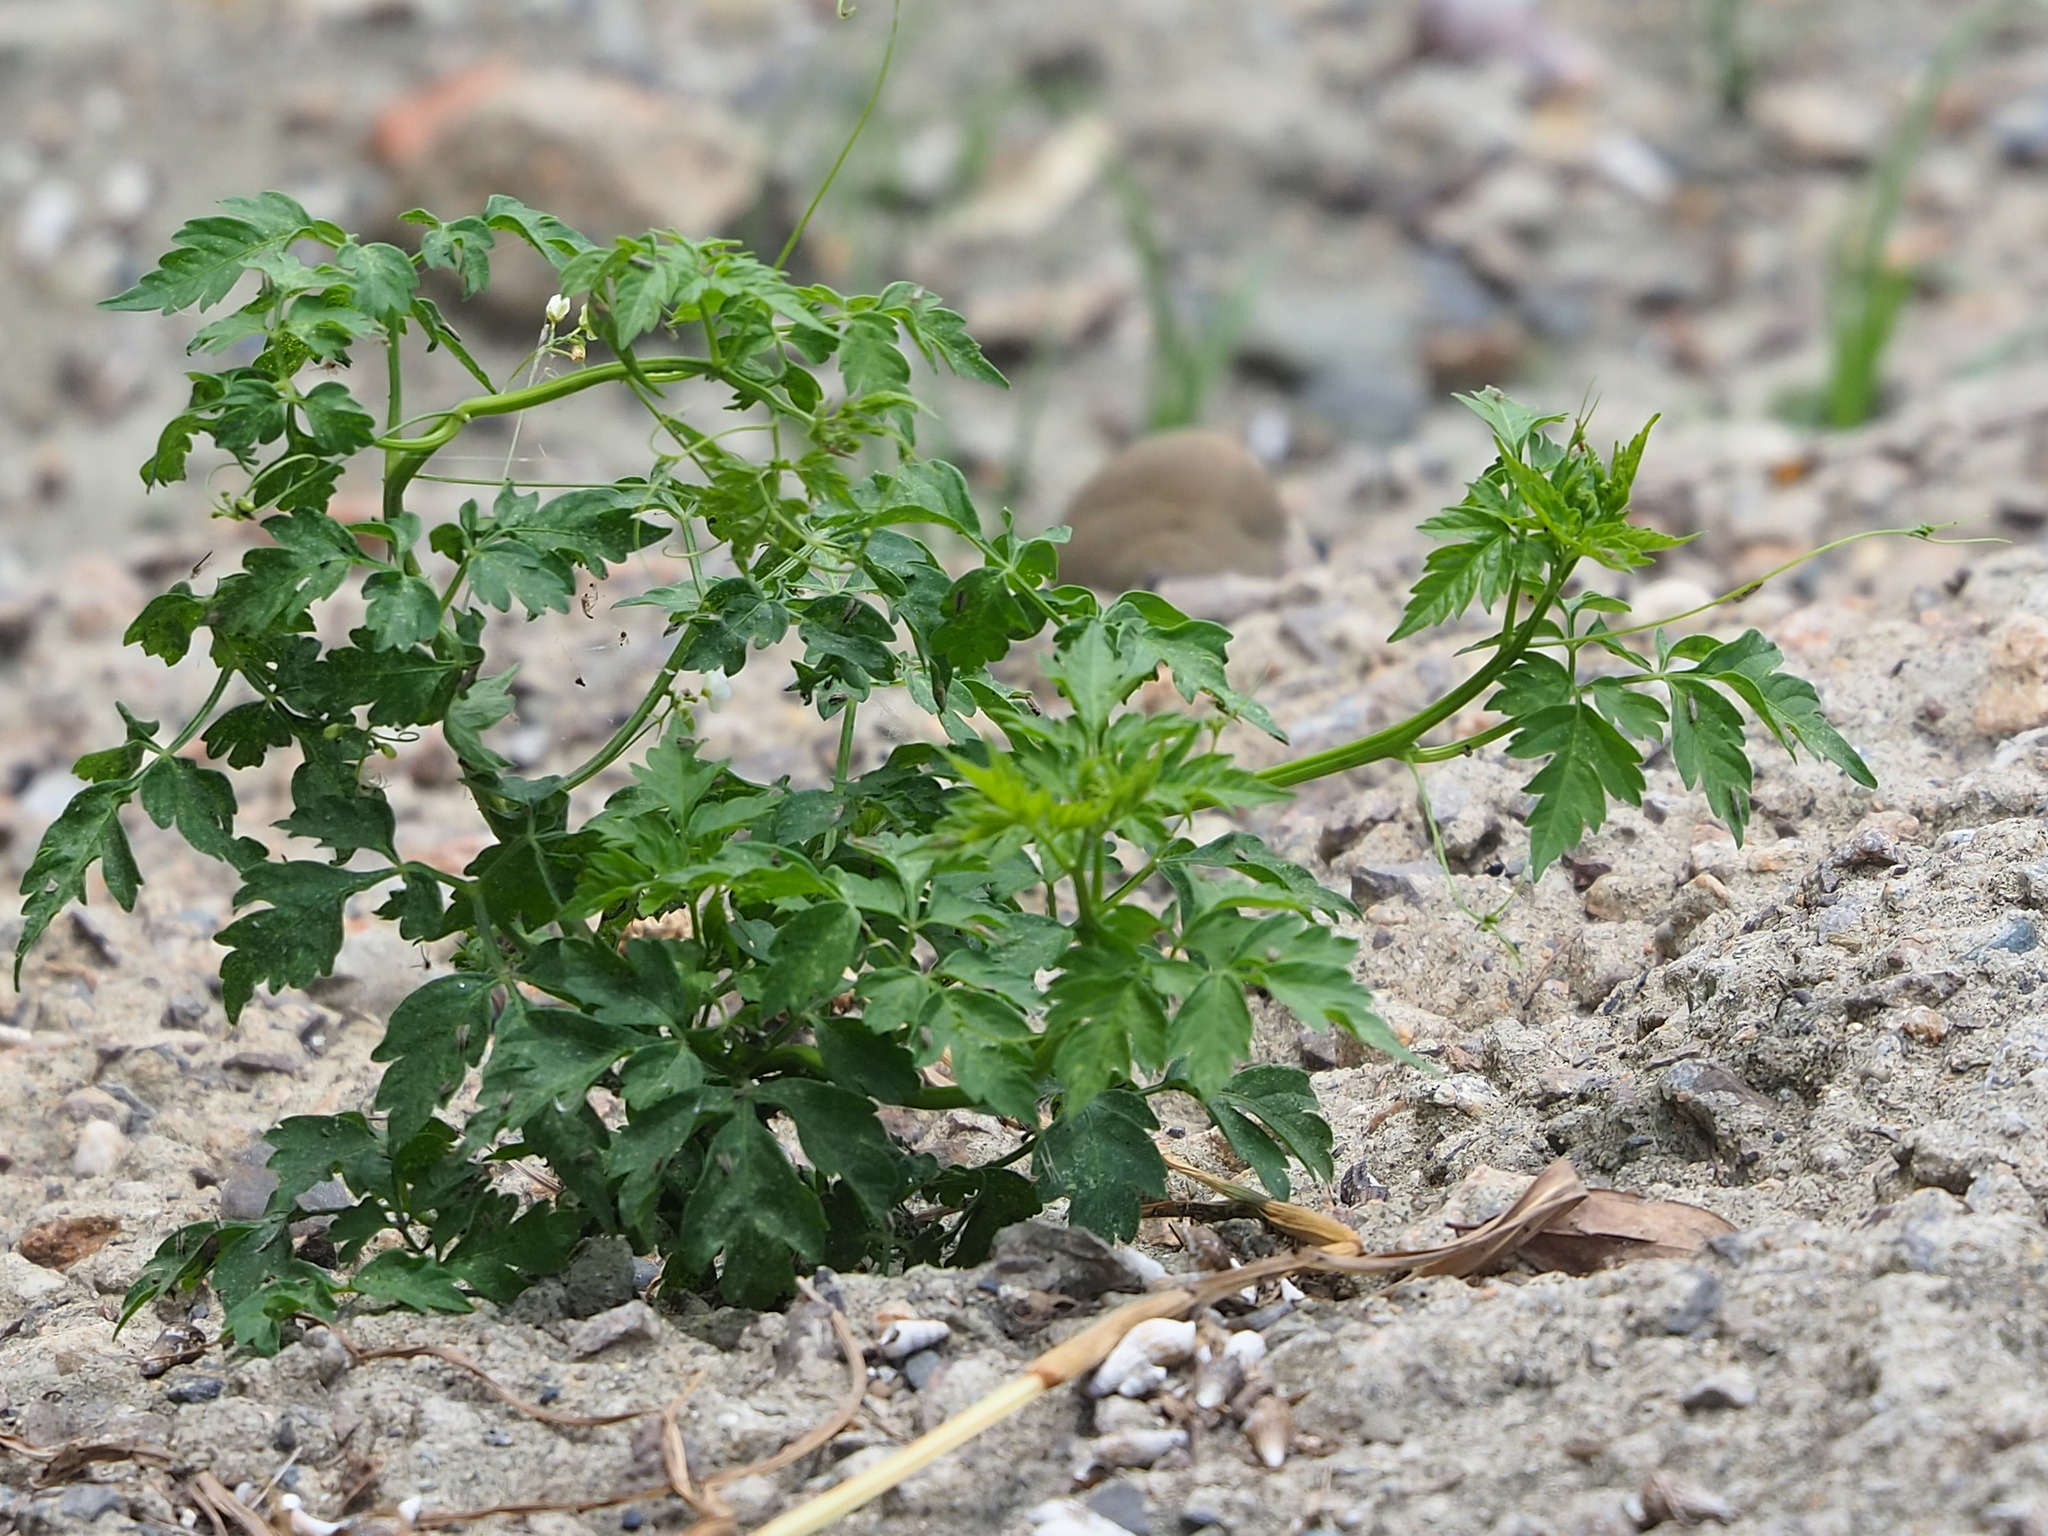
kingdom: Plantae
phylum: Tracheophyta
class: Magnoliopsida
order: Sapindales
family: Sapindaceae
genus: Cardiospermum
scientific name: Cardiospermum halicacabum
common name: Balloon vine
